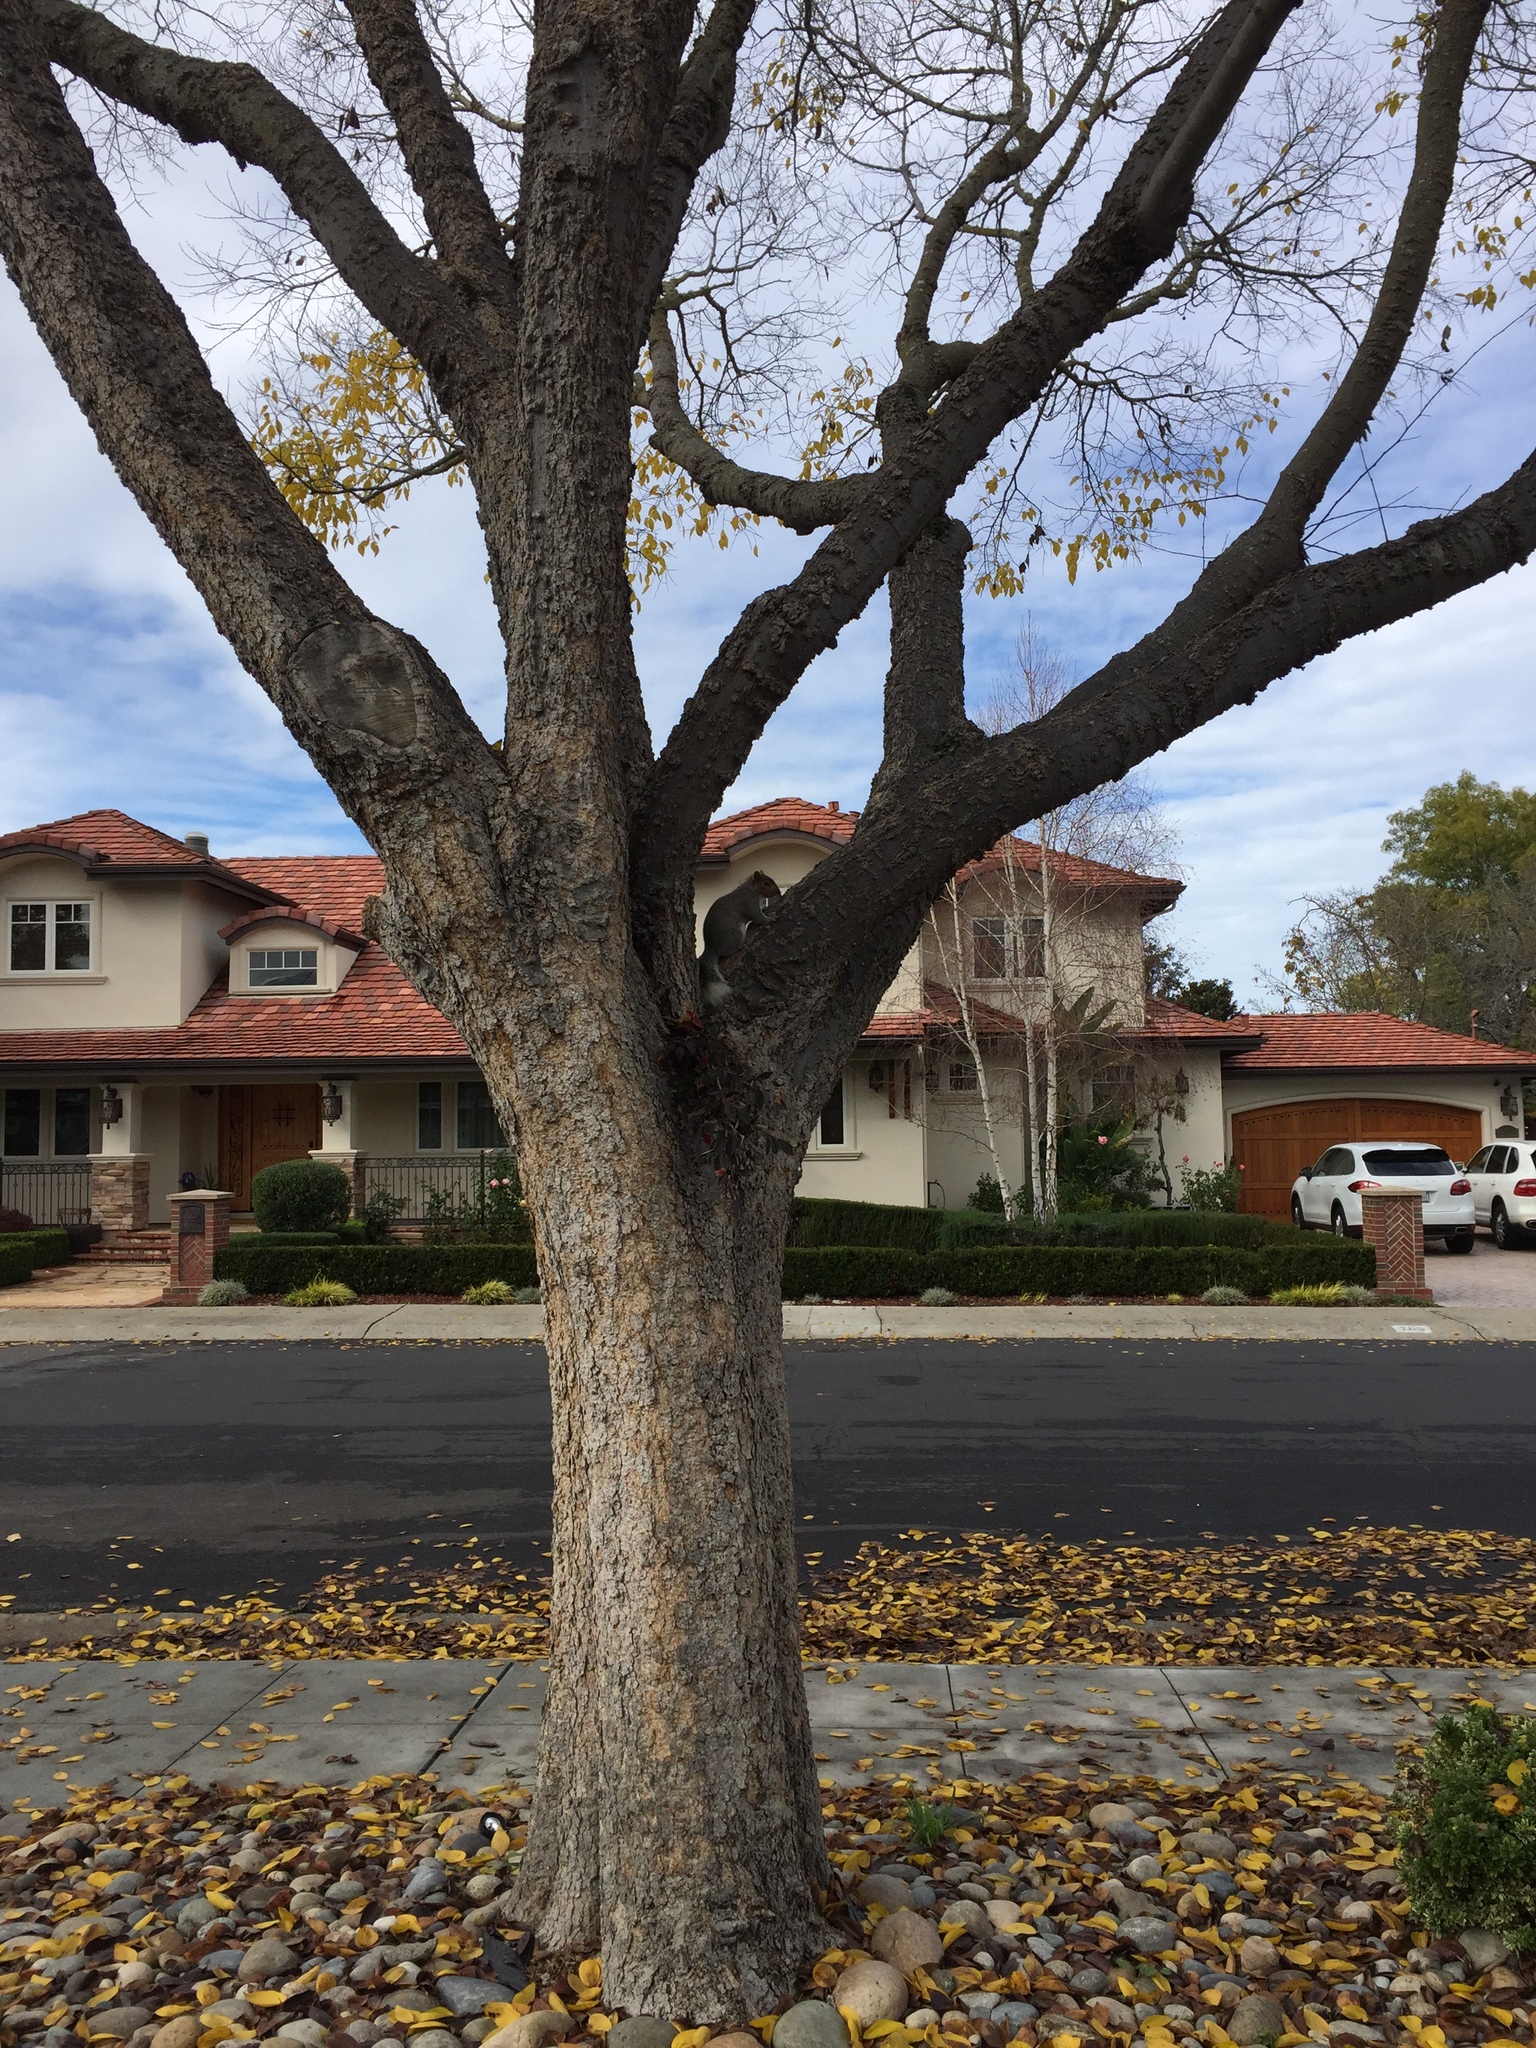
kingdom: Animalia
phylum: Chordata
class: Mammalia
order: Rodentia
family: Sciuridae
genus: Sciurus
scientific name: Sciurus carolinensis
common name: Eastern gray squirrel
